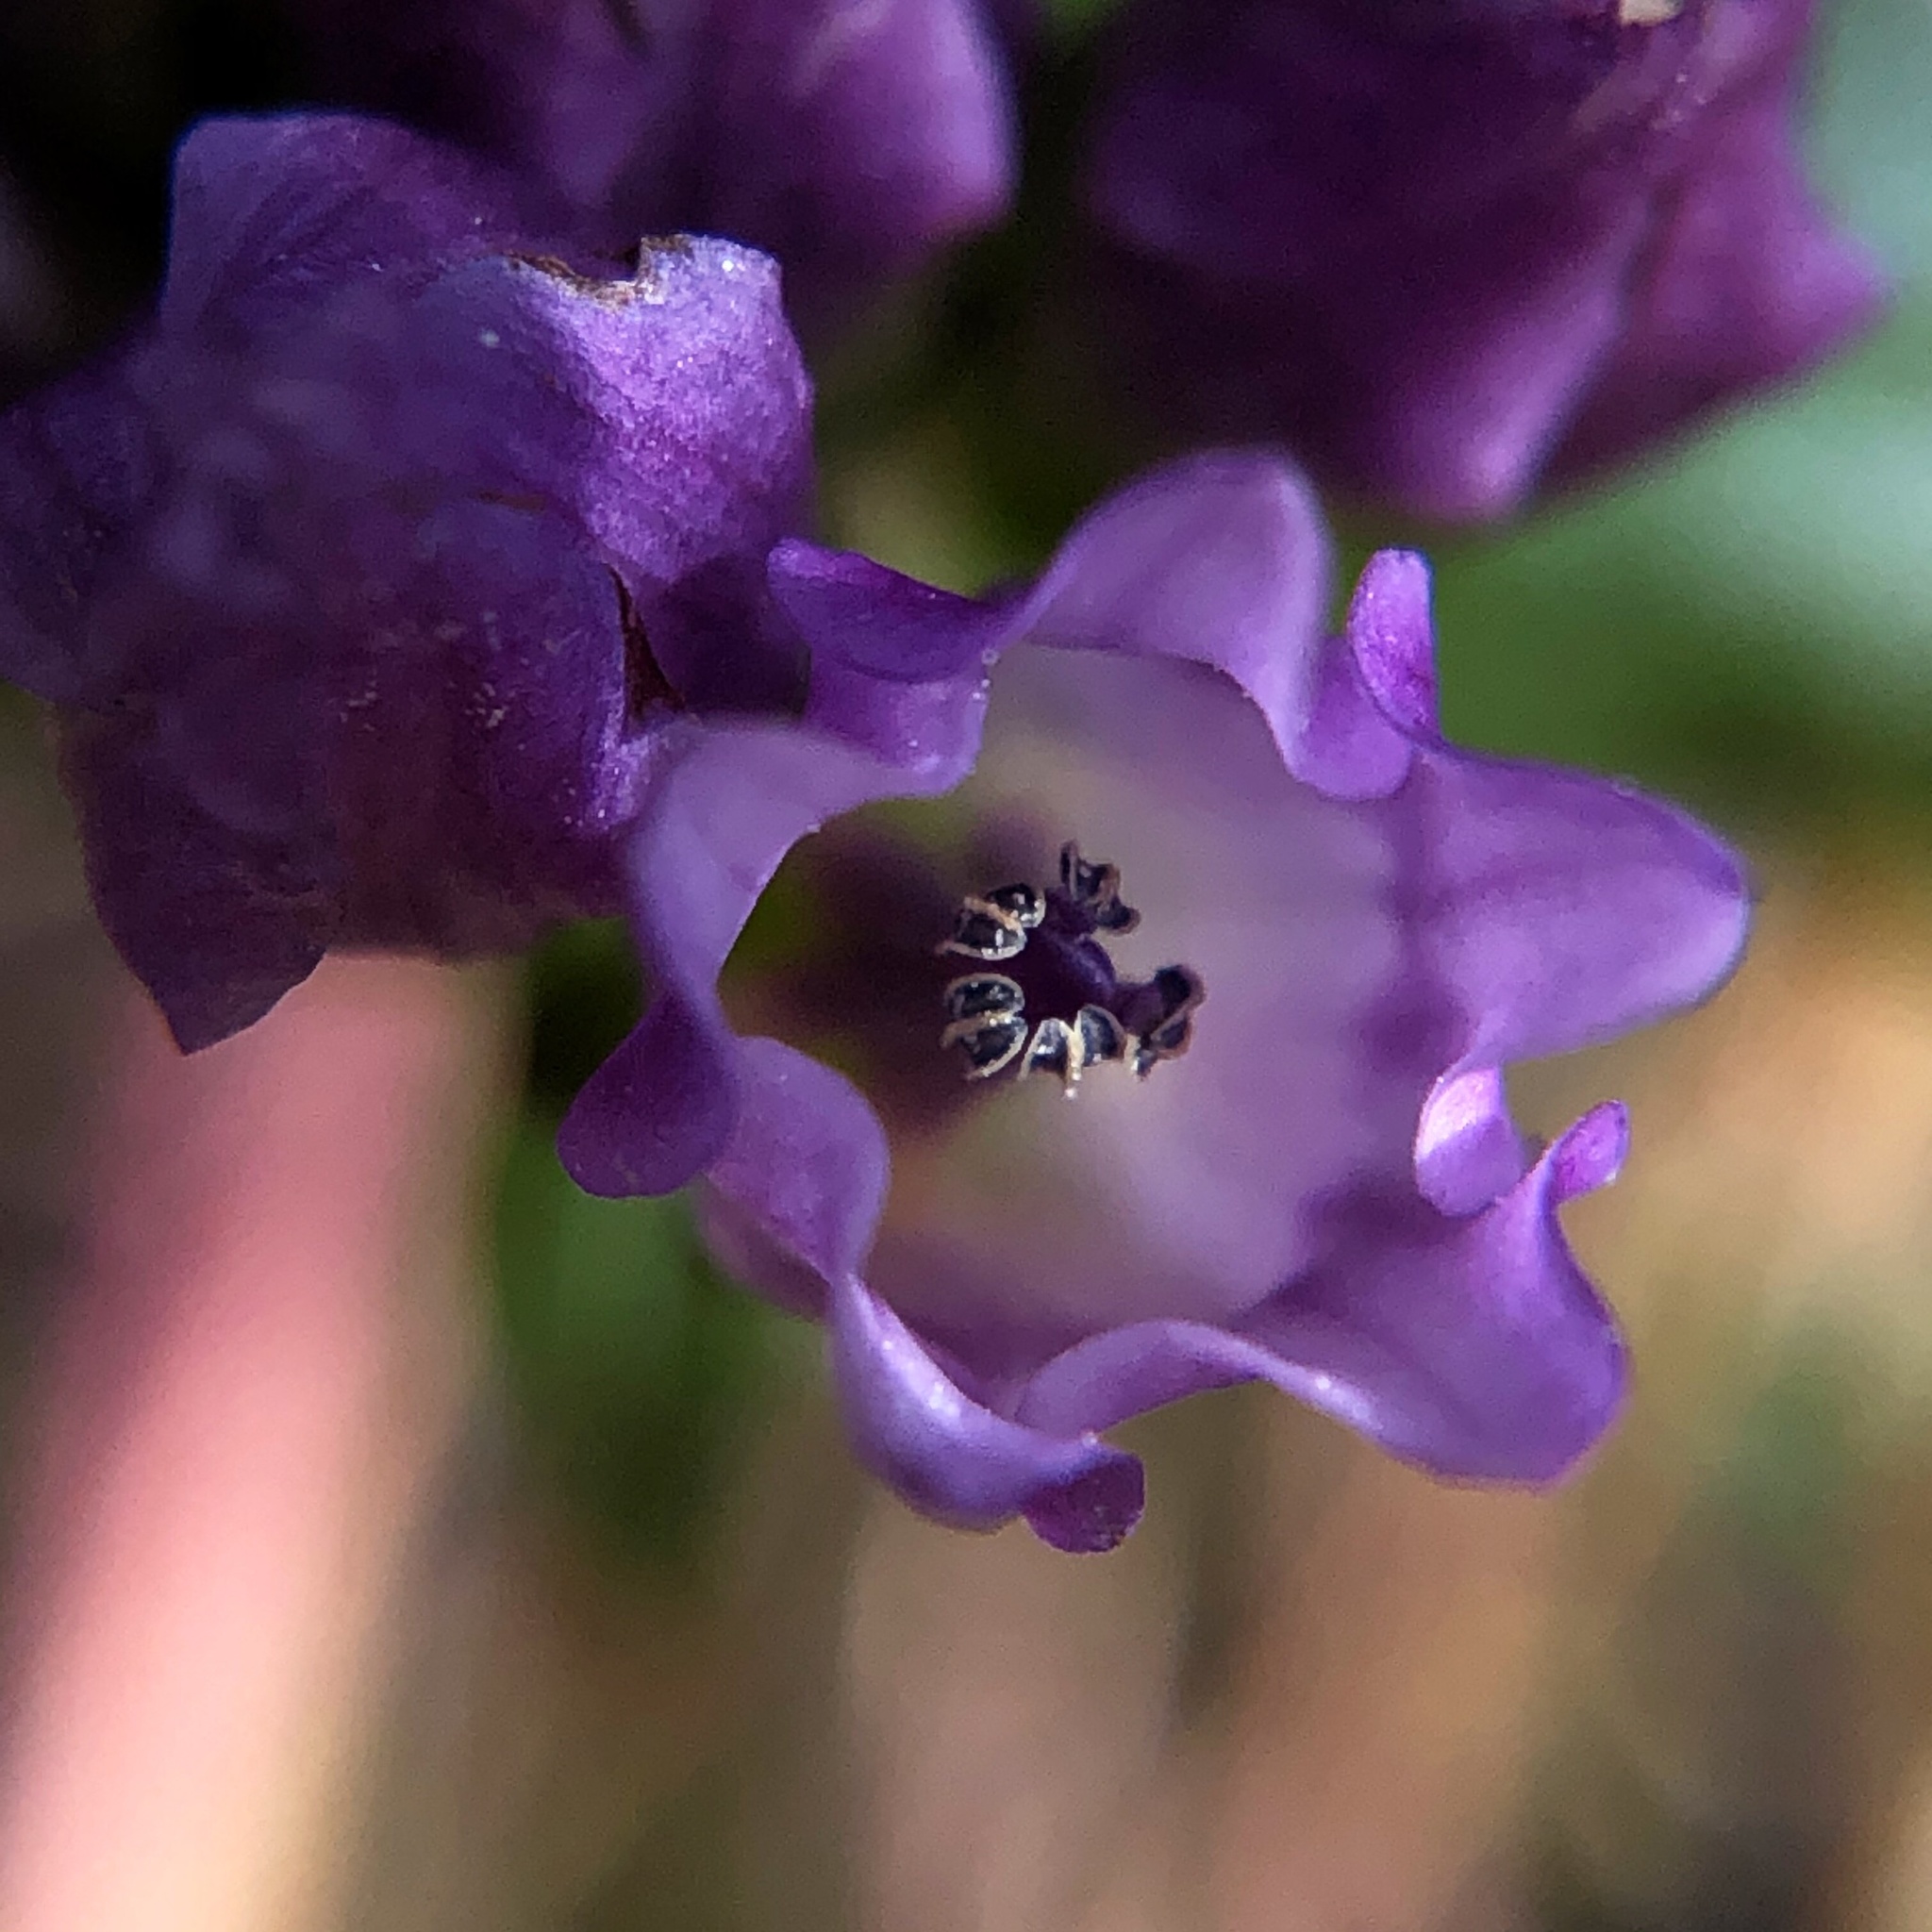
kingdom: Plantae
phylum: Tracheophyta
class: Magnoliopsida
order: Gentianales
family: Gentianaceae
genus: Gentianella
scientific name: Gentianella quinquefolia
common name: Agueweed
